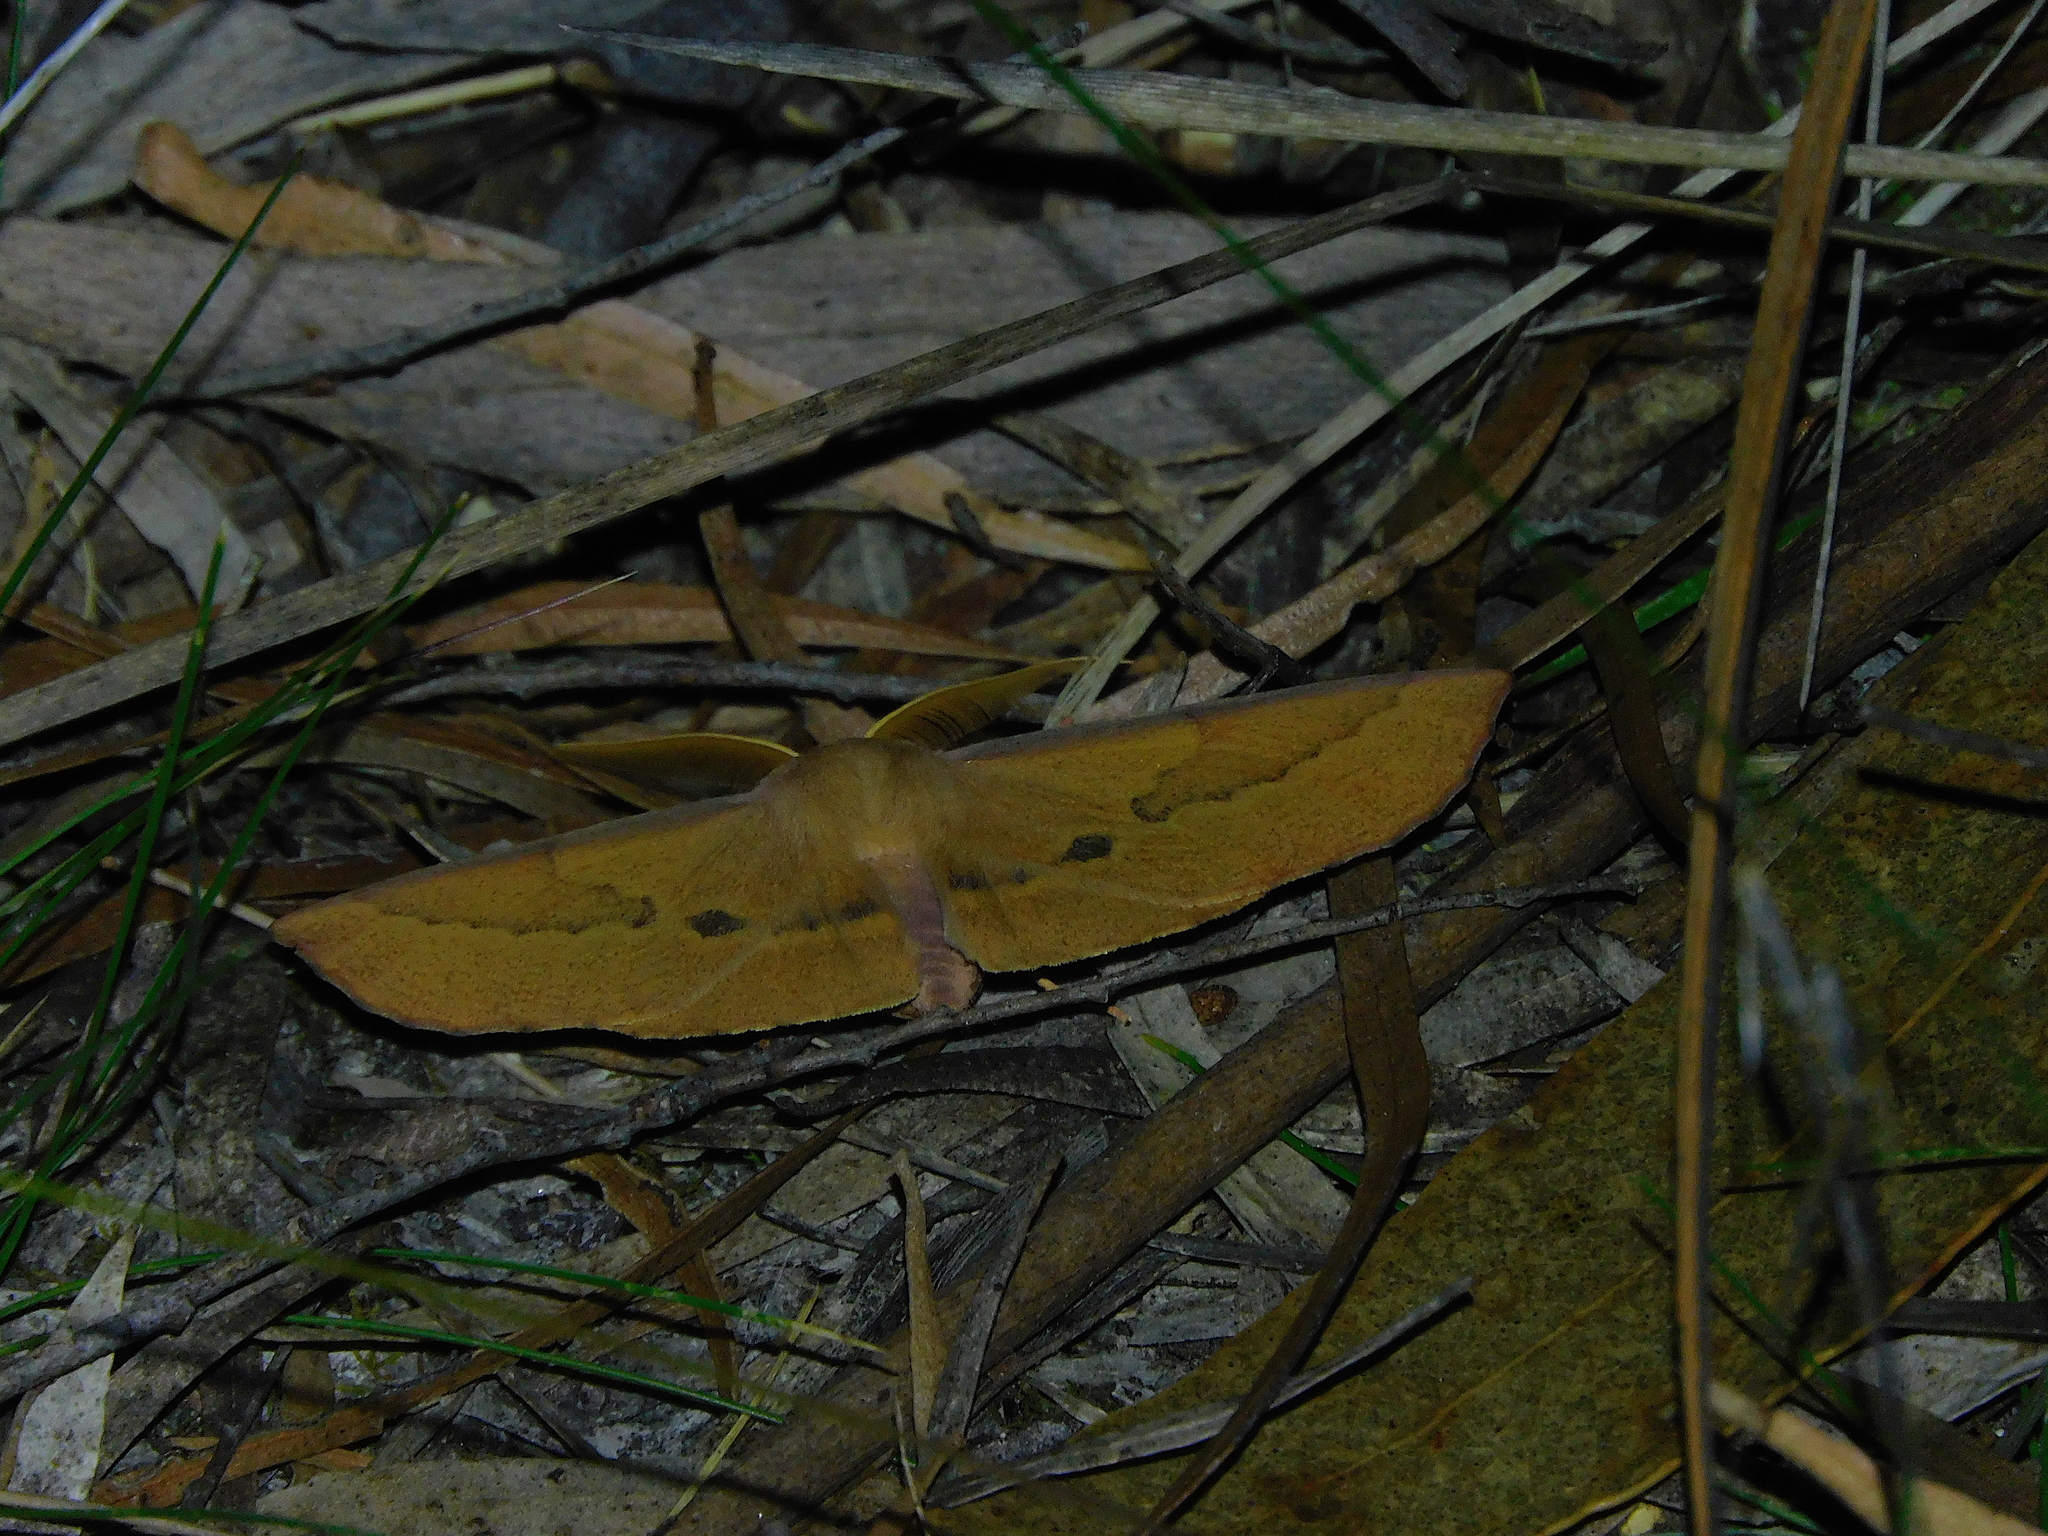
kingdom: Animalia
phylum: Arthropoda
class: Insecta
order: Lepidoptera
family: Geometridae
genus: Monoctenia
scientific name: Monoctenia falernaria
